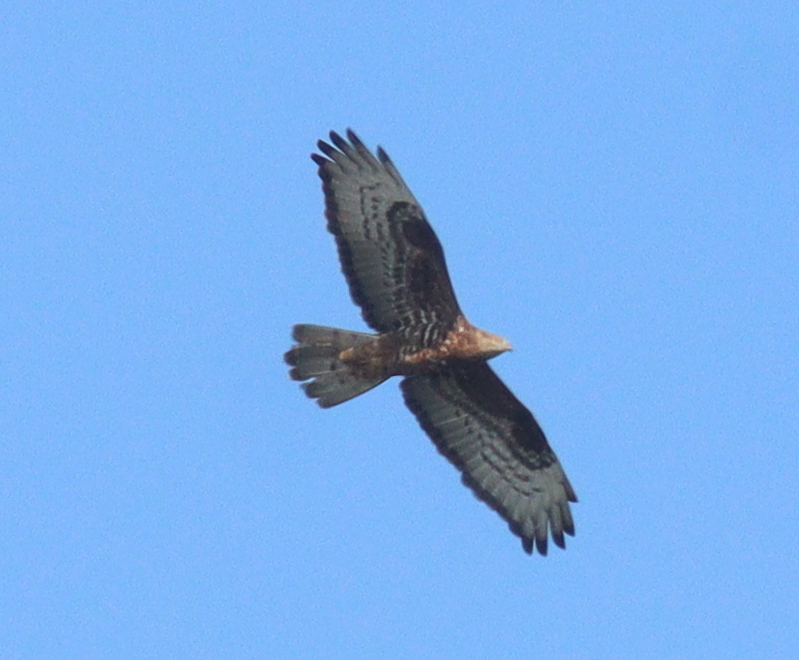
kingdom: Animalia
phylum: Chordata
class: Aves
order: Accipitriformes
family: Accipitridae
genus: Pernis
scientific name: Pernis apivorus
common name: European honey buzzard
